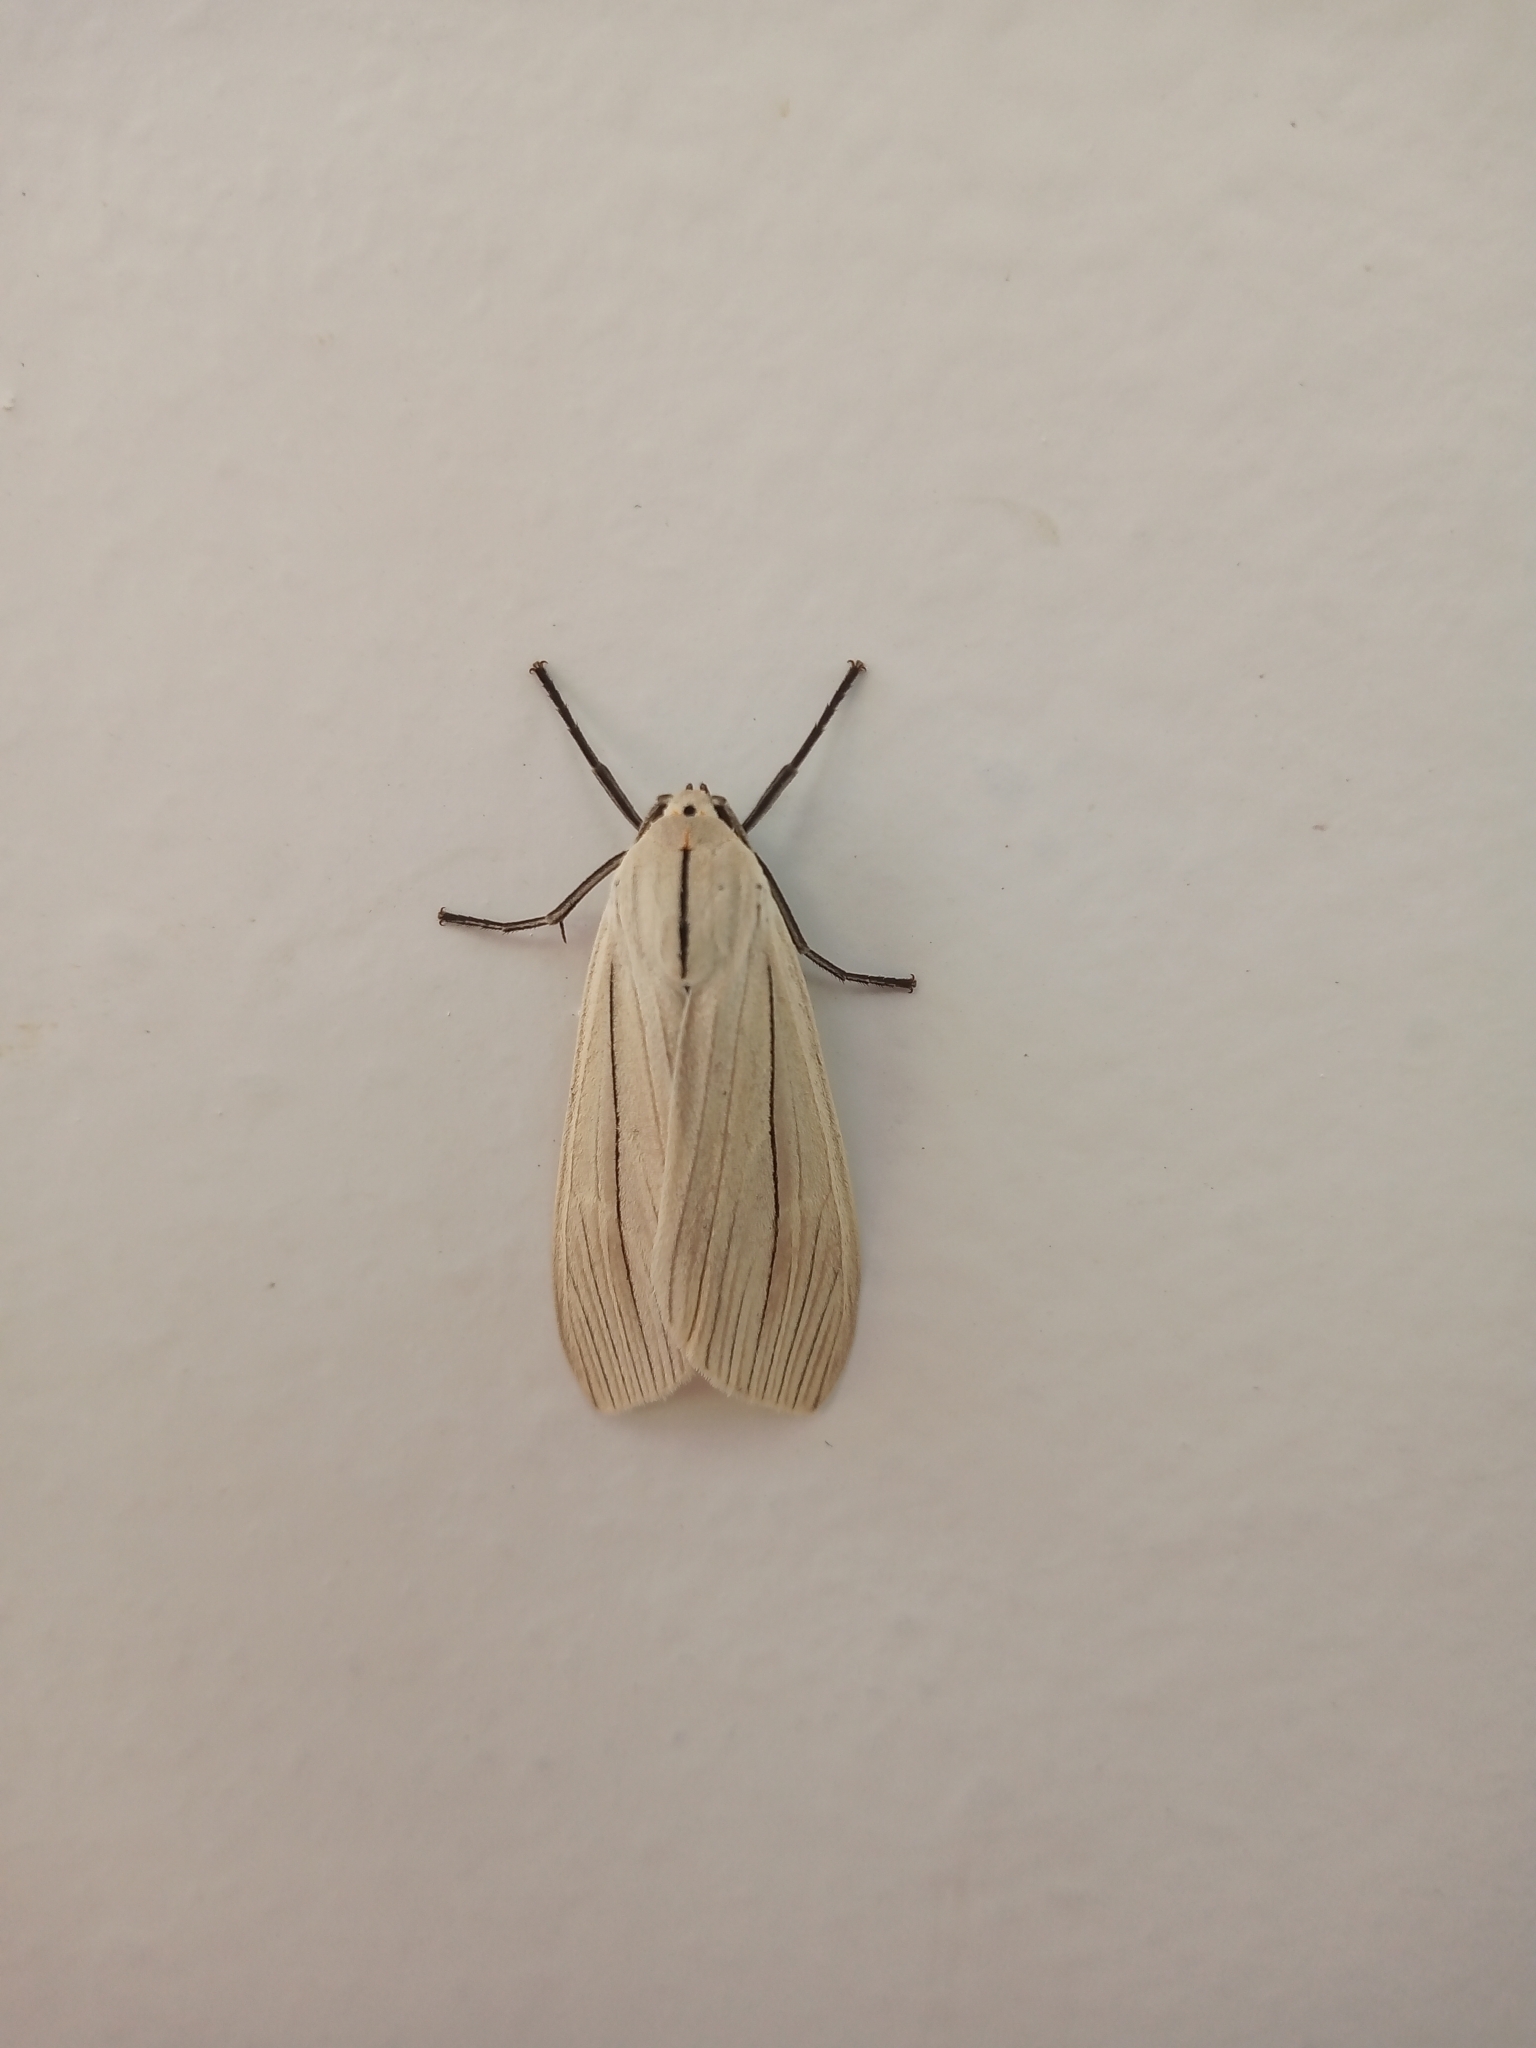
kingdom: Animalia
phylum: Arthropoda
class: Insecta
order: Lepidoptera
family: Erebidae
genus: Biturix
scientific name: Biturix rectilinea
